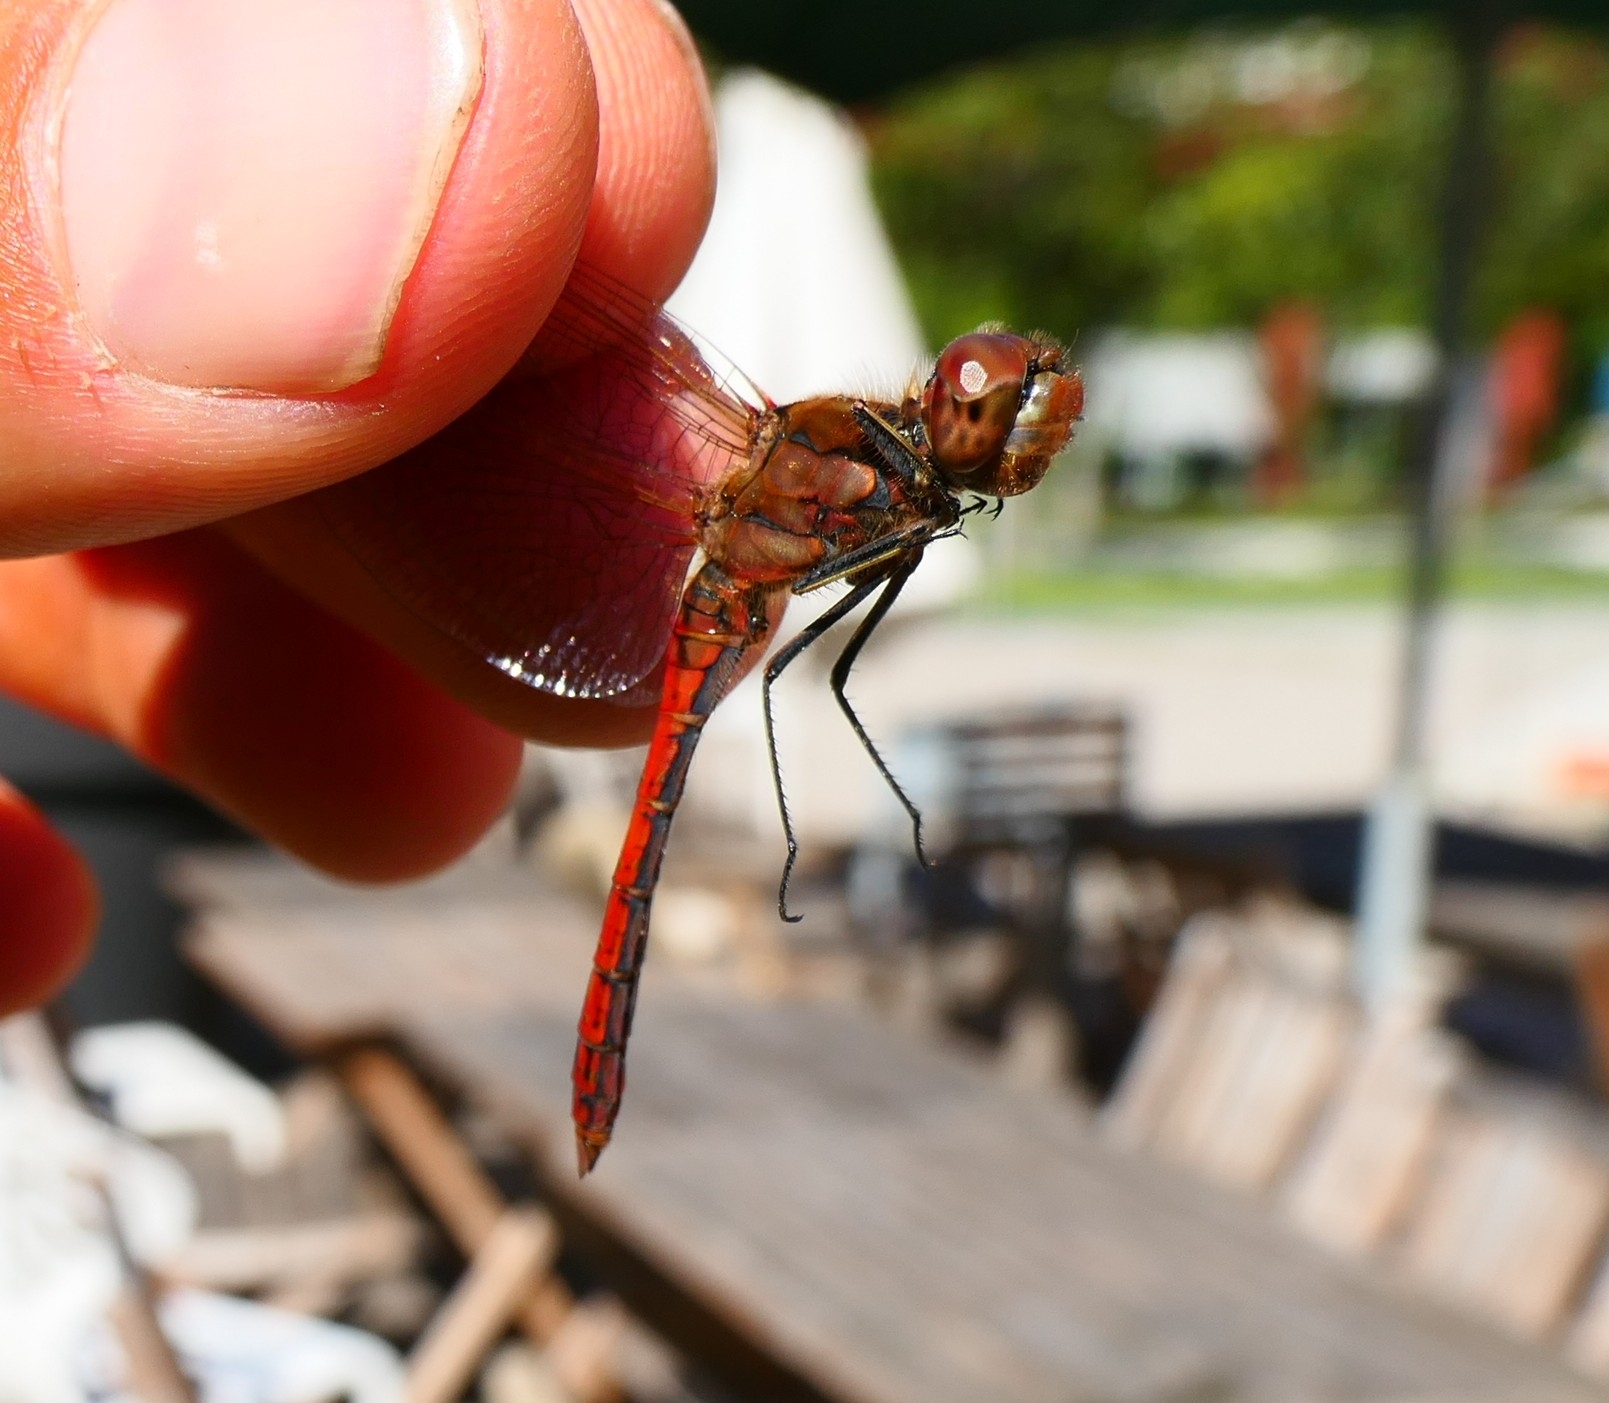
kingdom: Animalia
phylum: Arthropoda
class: Insecta
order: Odonata
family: Libellulidae
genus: Sympetrum
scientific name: Sympetrum vulgatum
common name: Vagrant darter
